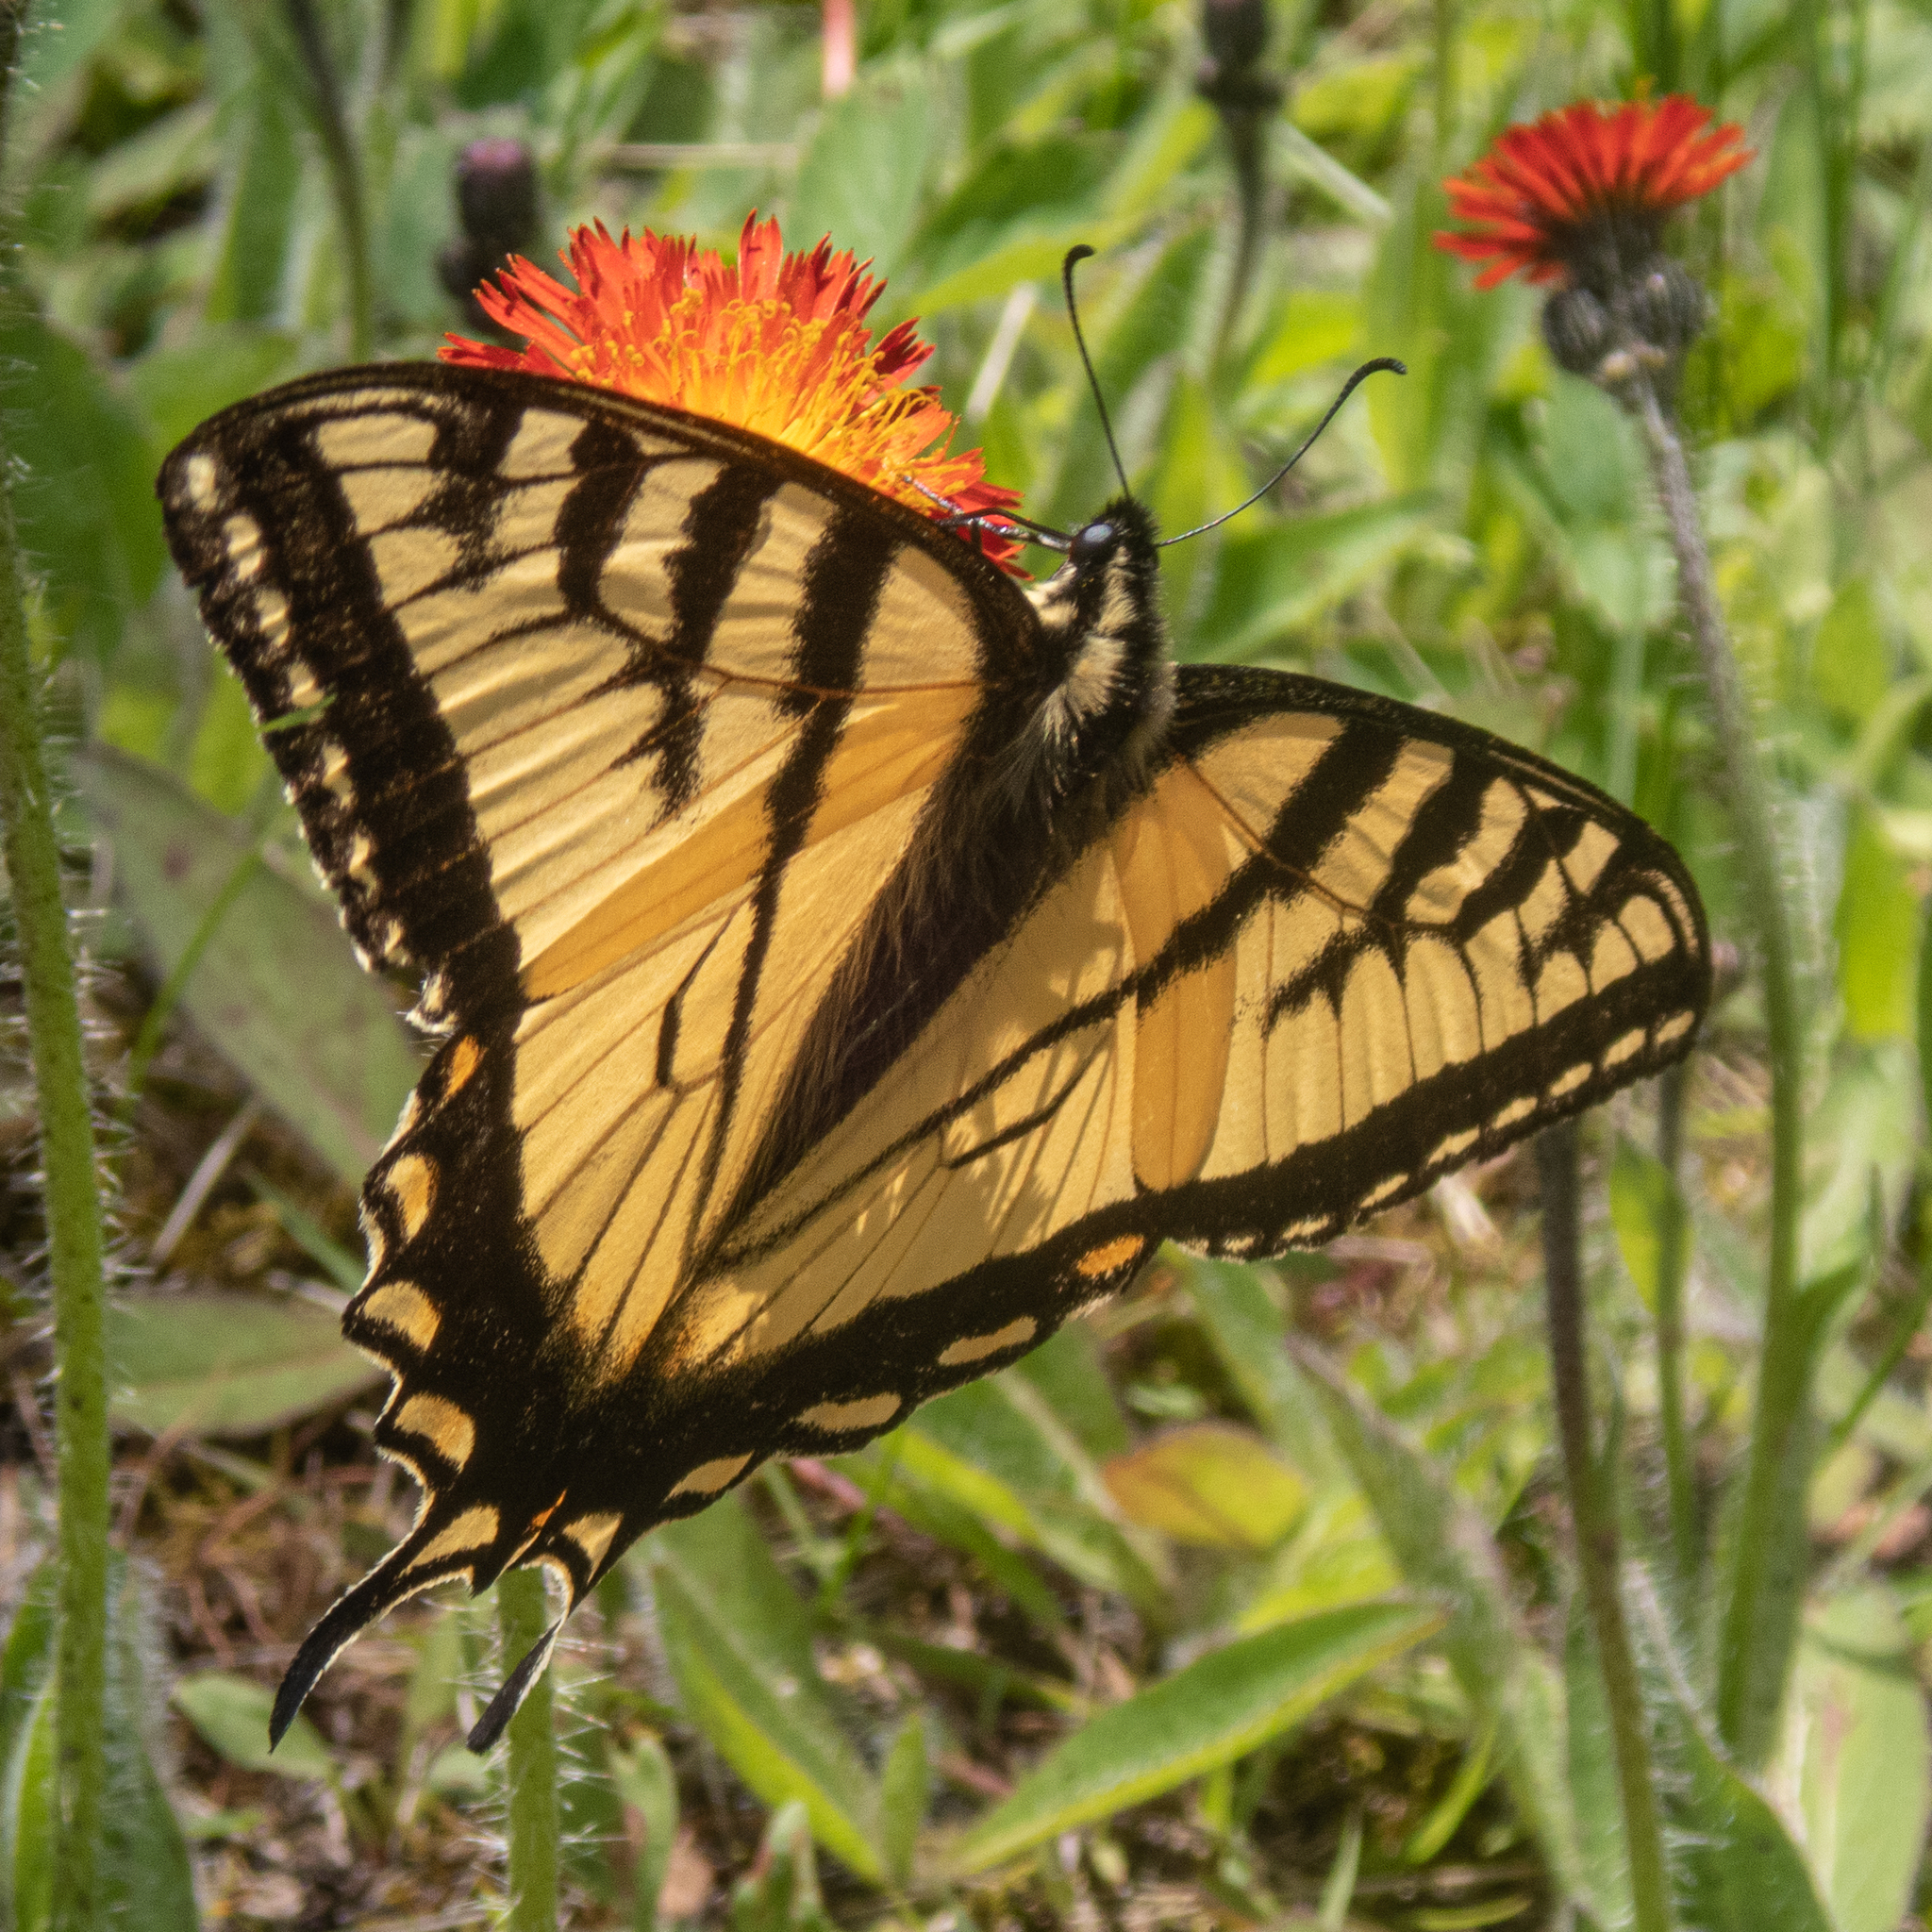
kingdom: Animalia
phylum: Arthropoda
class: Insecta
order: Lepidoptera
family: Papilionidae
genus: Papilio
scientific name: Papilio canadensis
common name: Canadian tiger swallowtail
